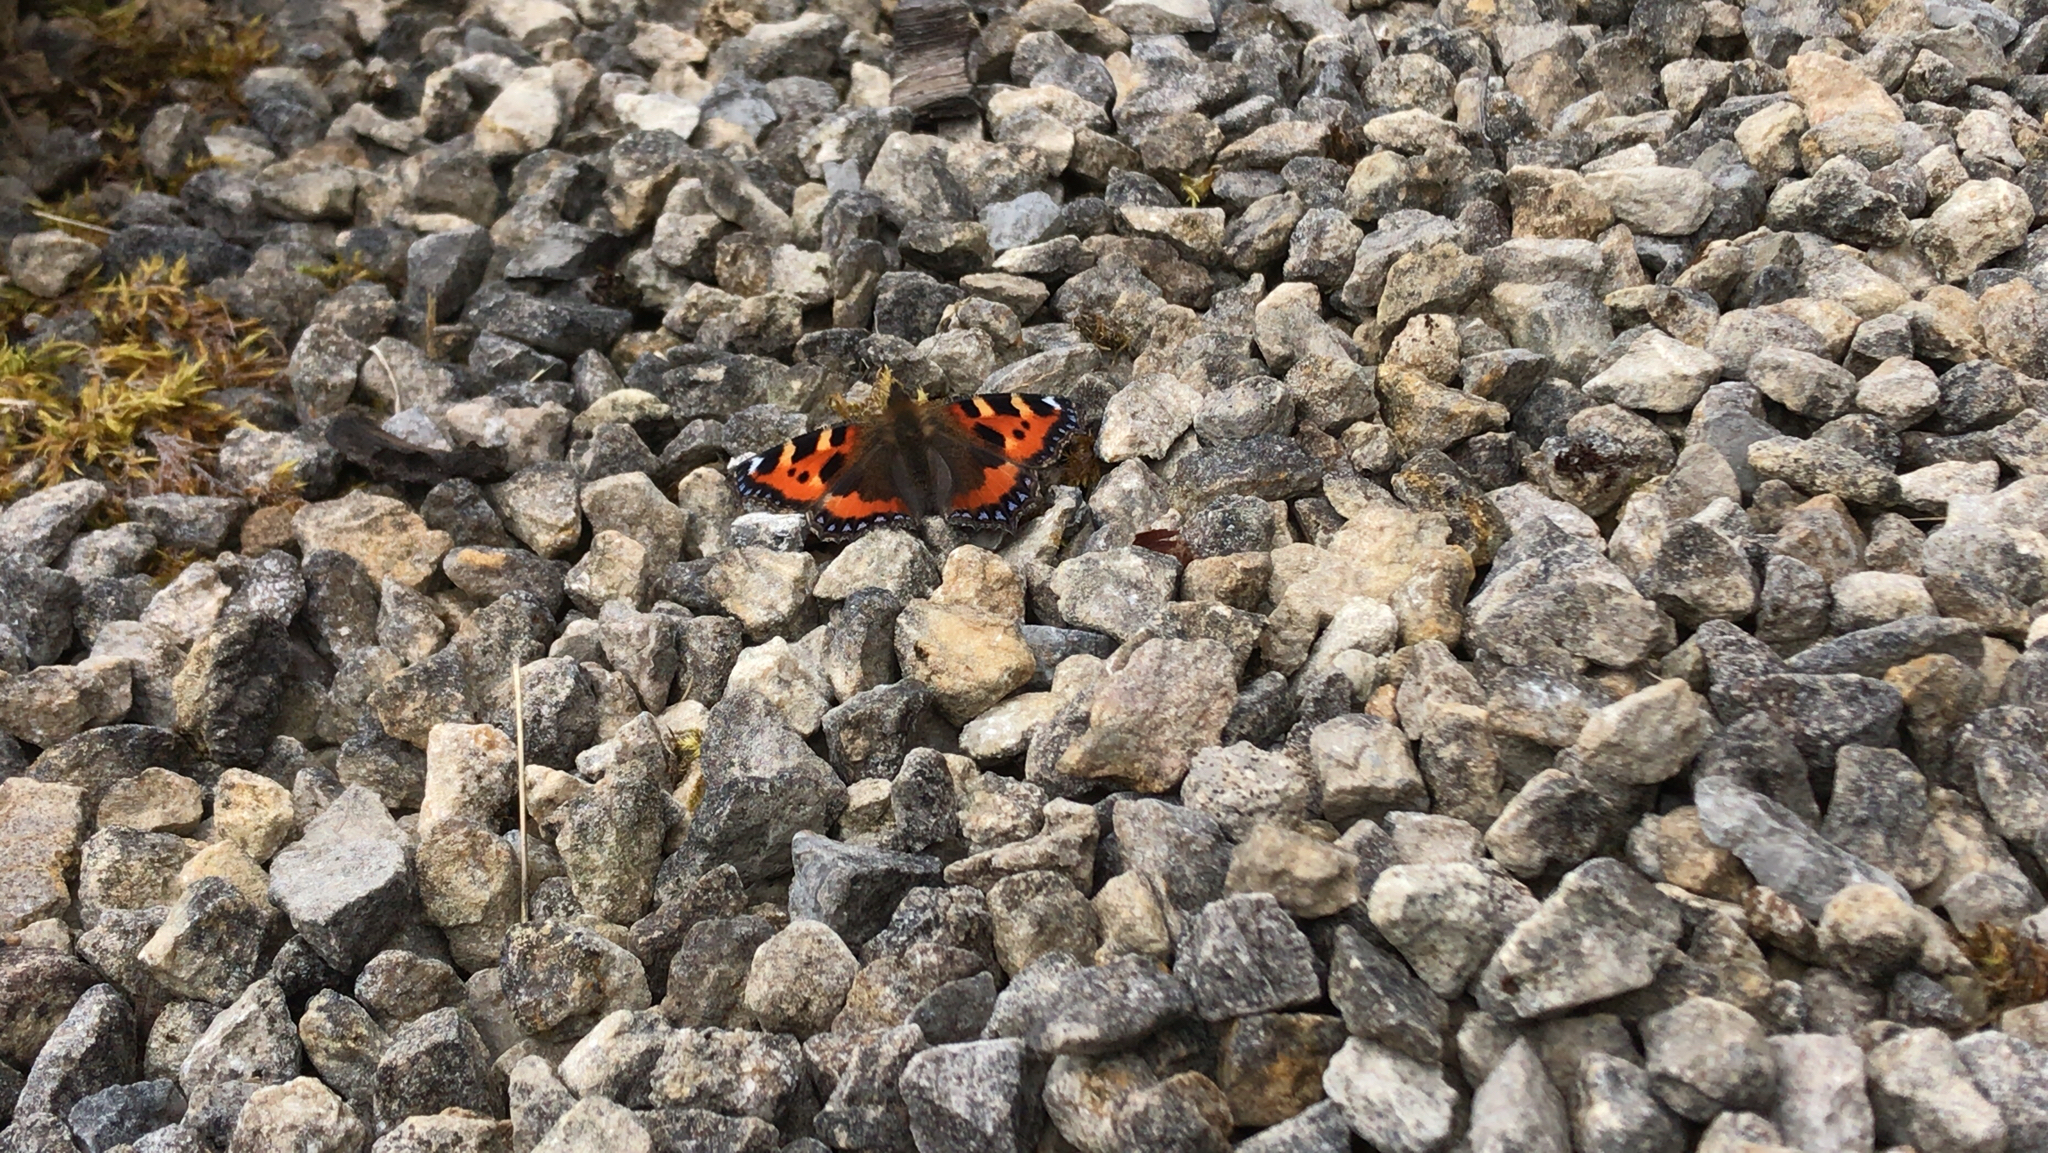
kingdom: Animalia
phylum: Arthropoda
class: Insecta
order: Lepidoptera
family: Nymphalidae
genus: Aglais
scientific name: Aglais urticae
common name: Small tortoiseshell
